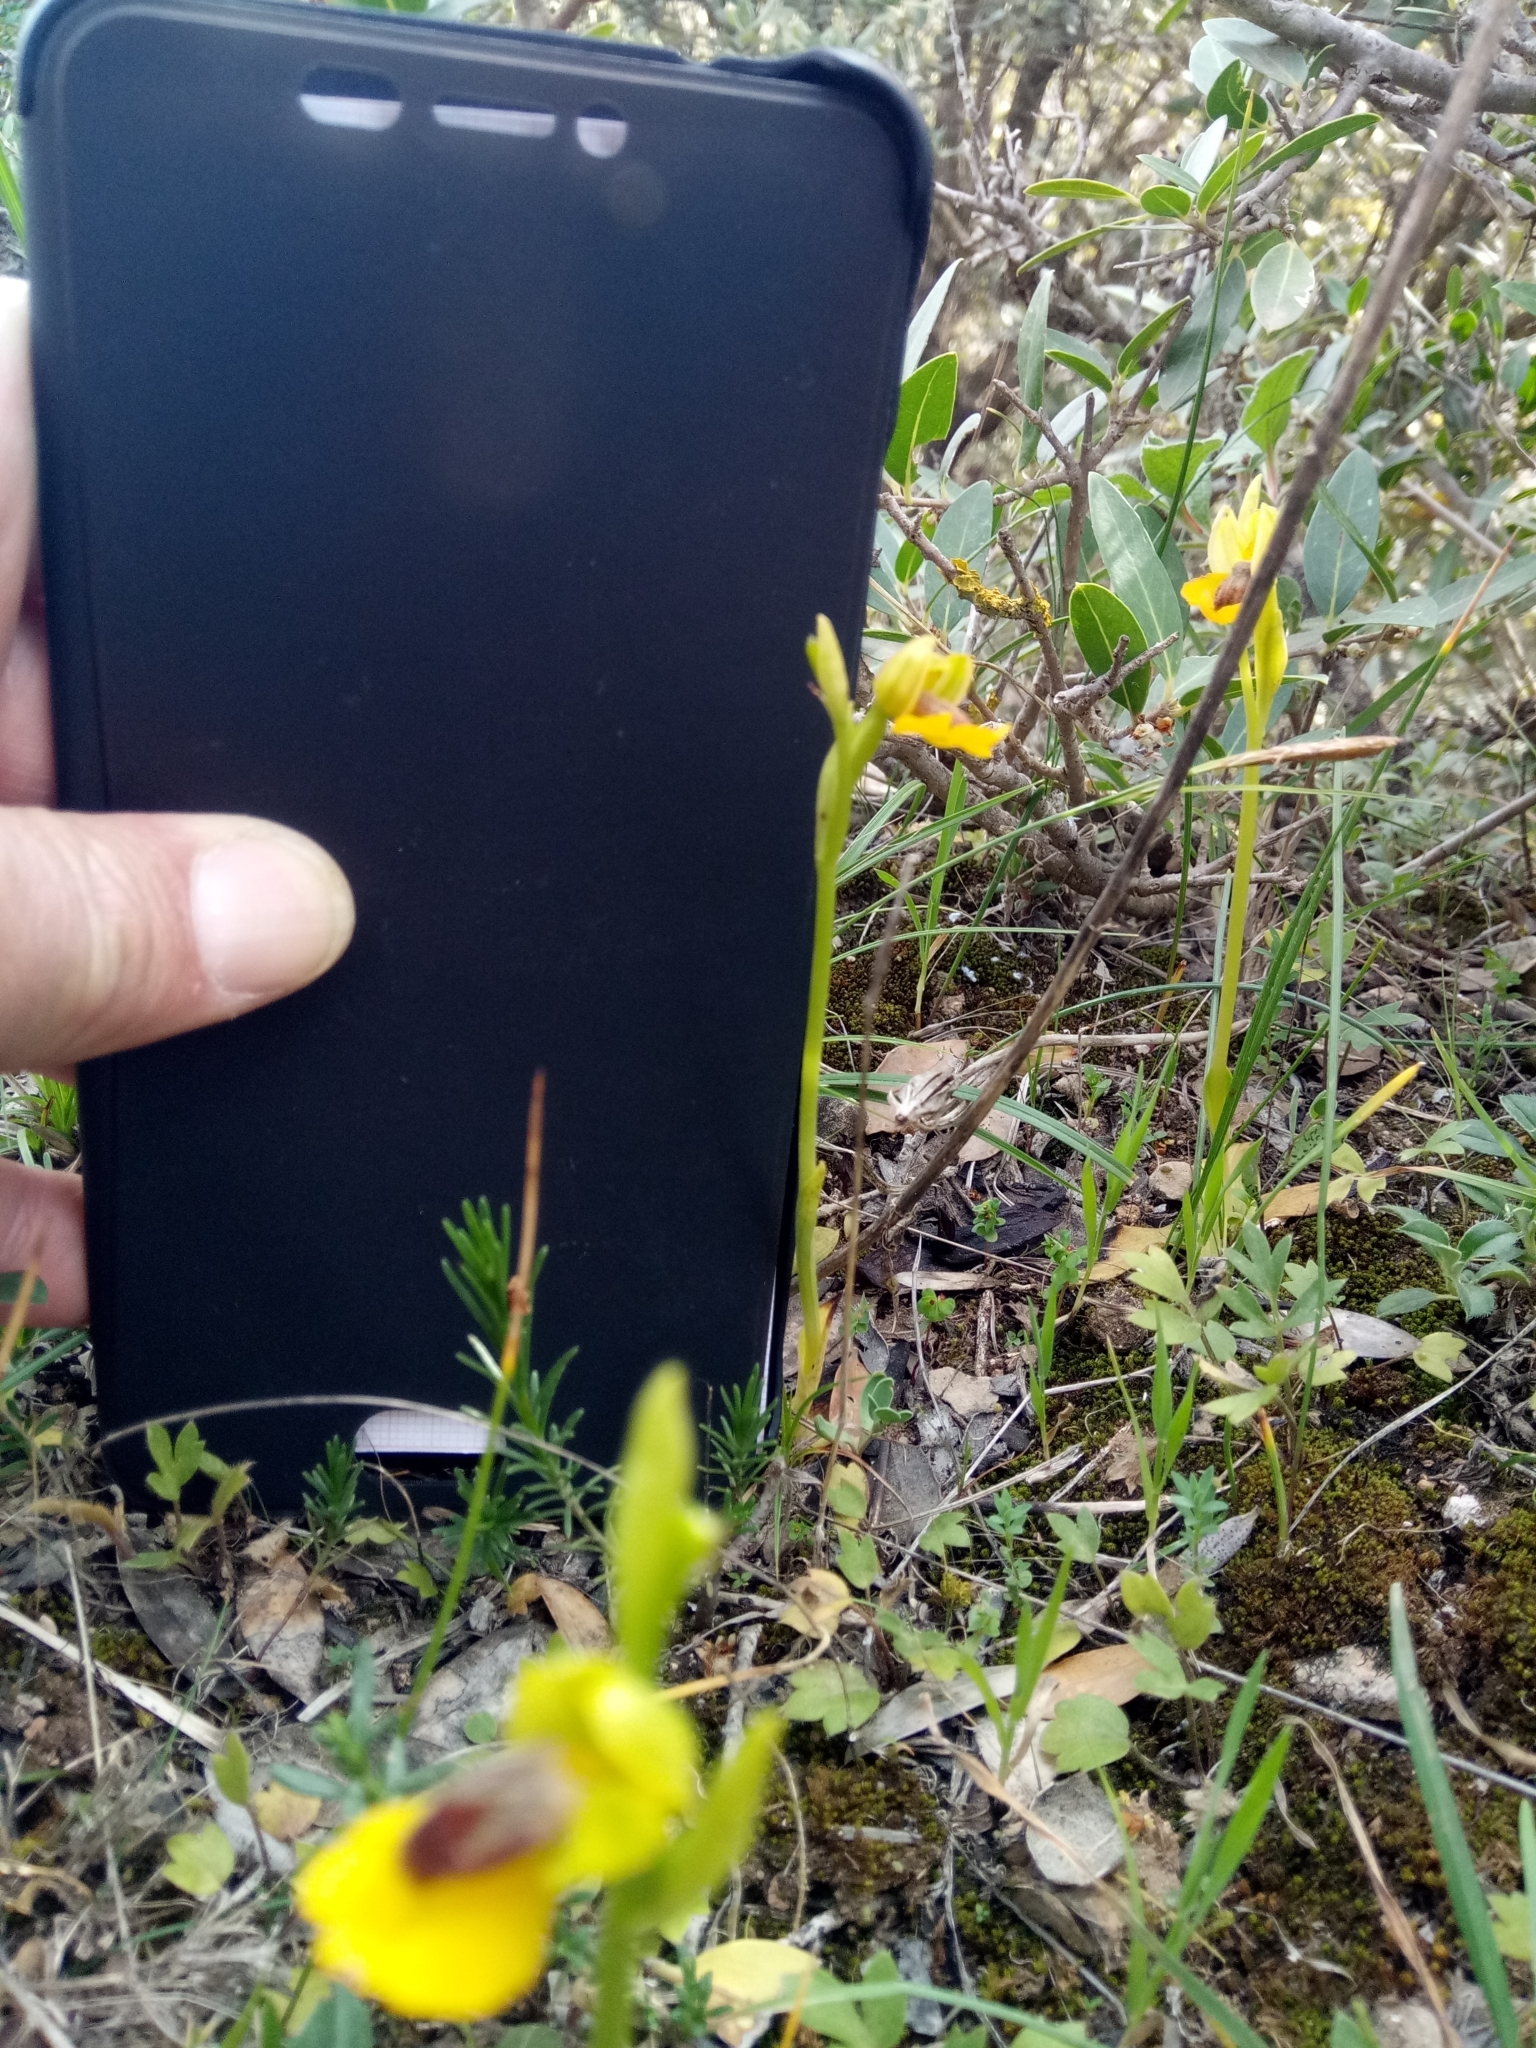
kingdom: Plantae
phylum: Tracheophyta
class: Liliopsida
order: Asparagales
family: Orchidaceae
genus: Ophrys
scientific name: Ophrys lutea
